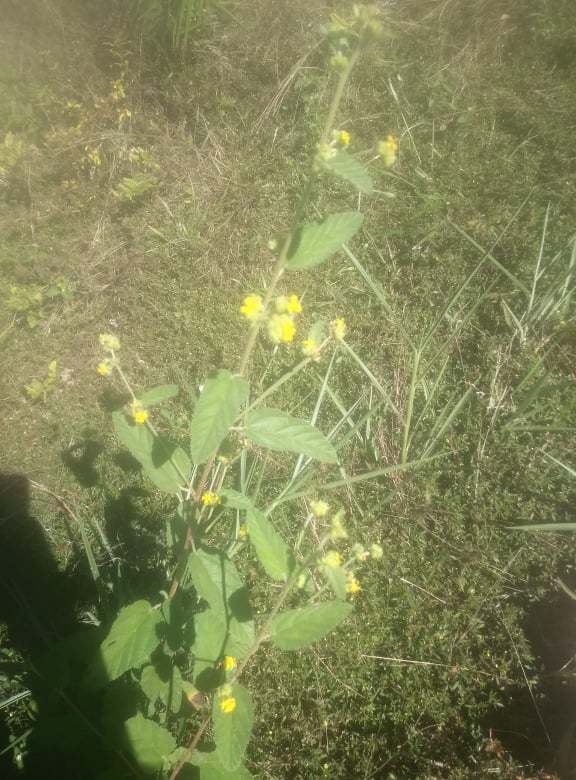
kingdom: Plantae
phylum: Tracheophyta
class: Magnoliopsida
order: Malvales
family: Malvaceae
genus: Waltheria
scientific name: Waltheria indica
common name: Leather-coat
